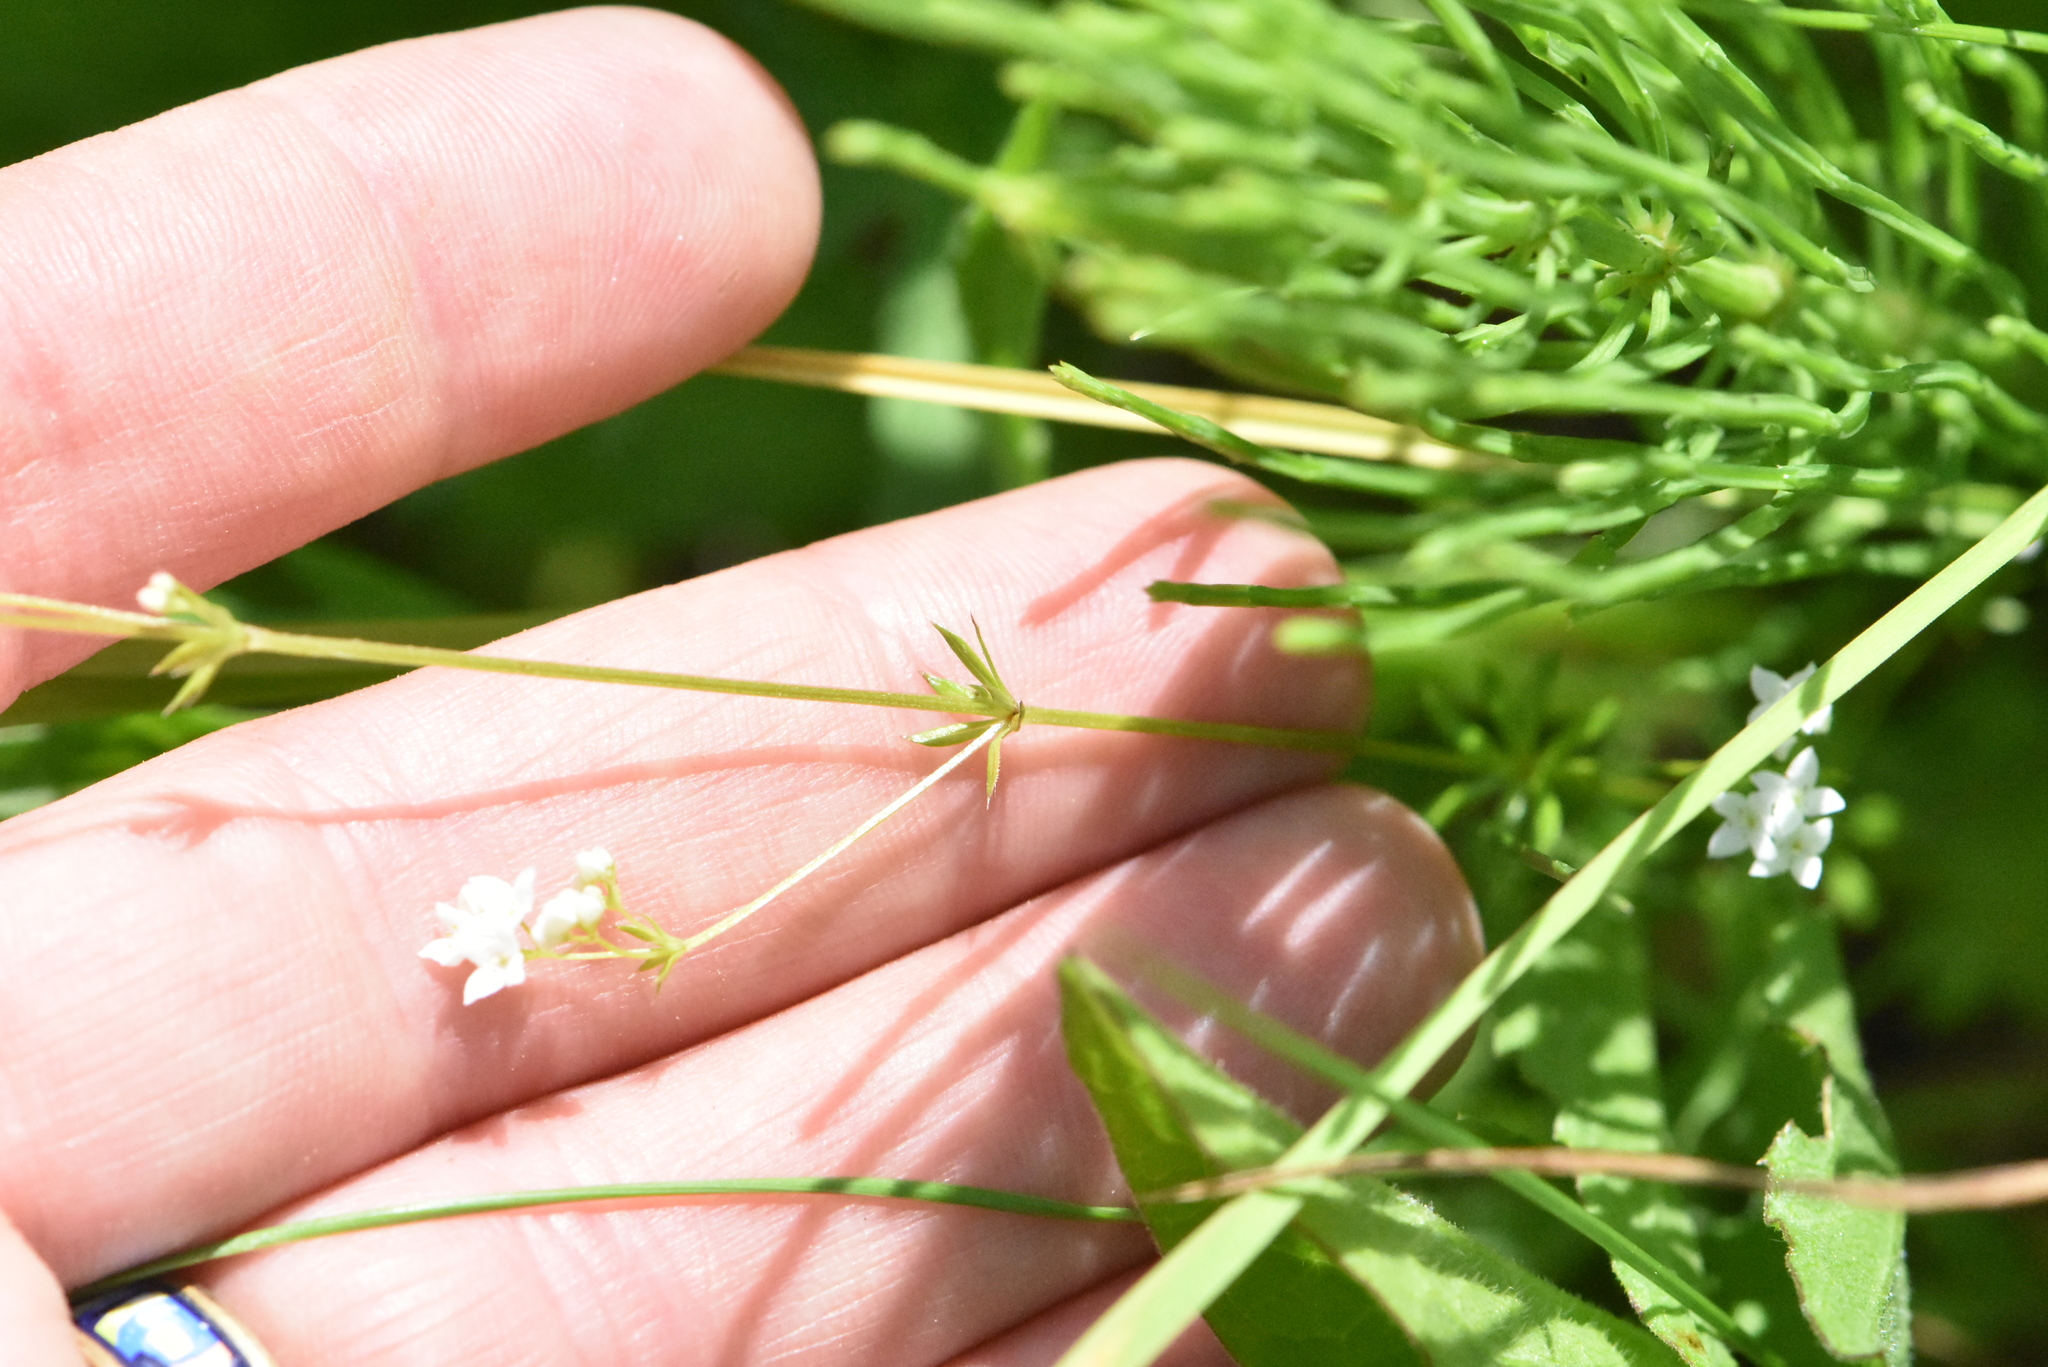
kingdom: Plantae
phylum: Tracheophyta
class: Magnoliopsida
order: Gentianales
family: Rubiaceae
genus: Galium
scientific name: Galium uliginosum
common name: Fen bedstraw
